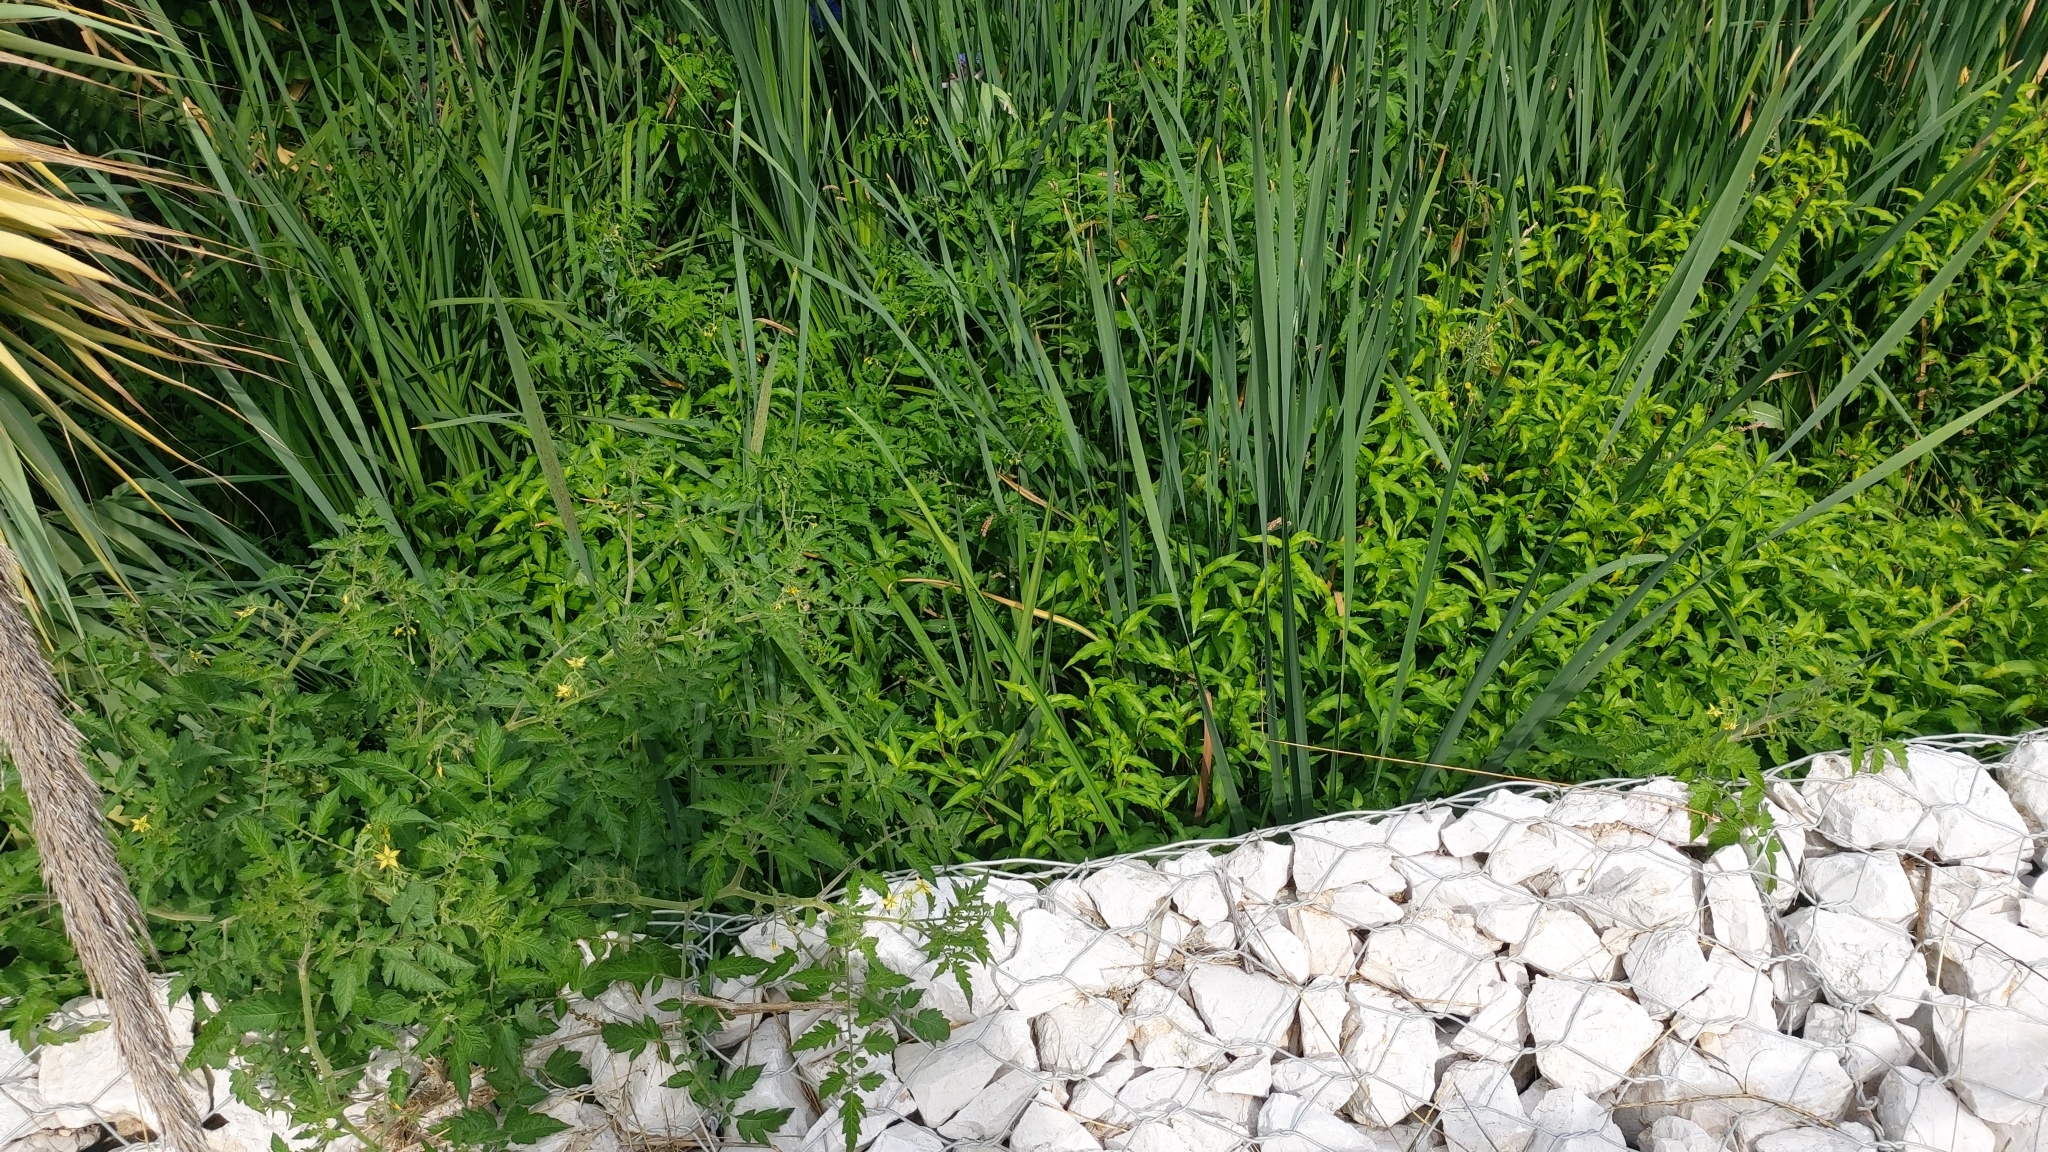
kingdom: Plantae
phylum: Tracheophyta
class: Magnoliopsida
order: Solanales
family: Solanaceae
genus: Solanum
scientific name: Solanum lycopersicum
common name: Garden tomato
